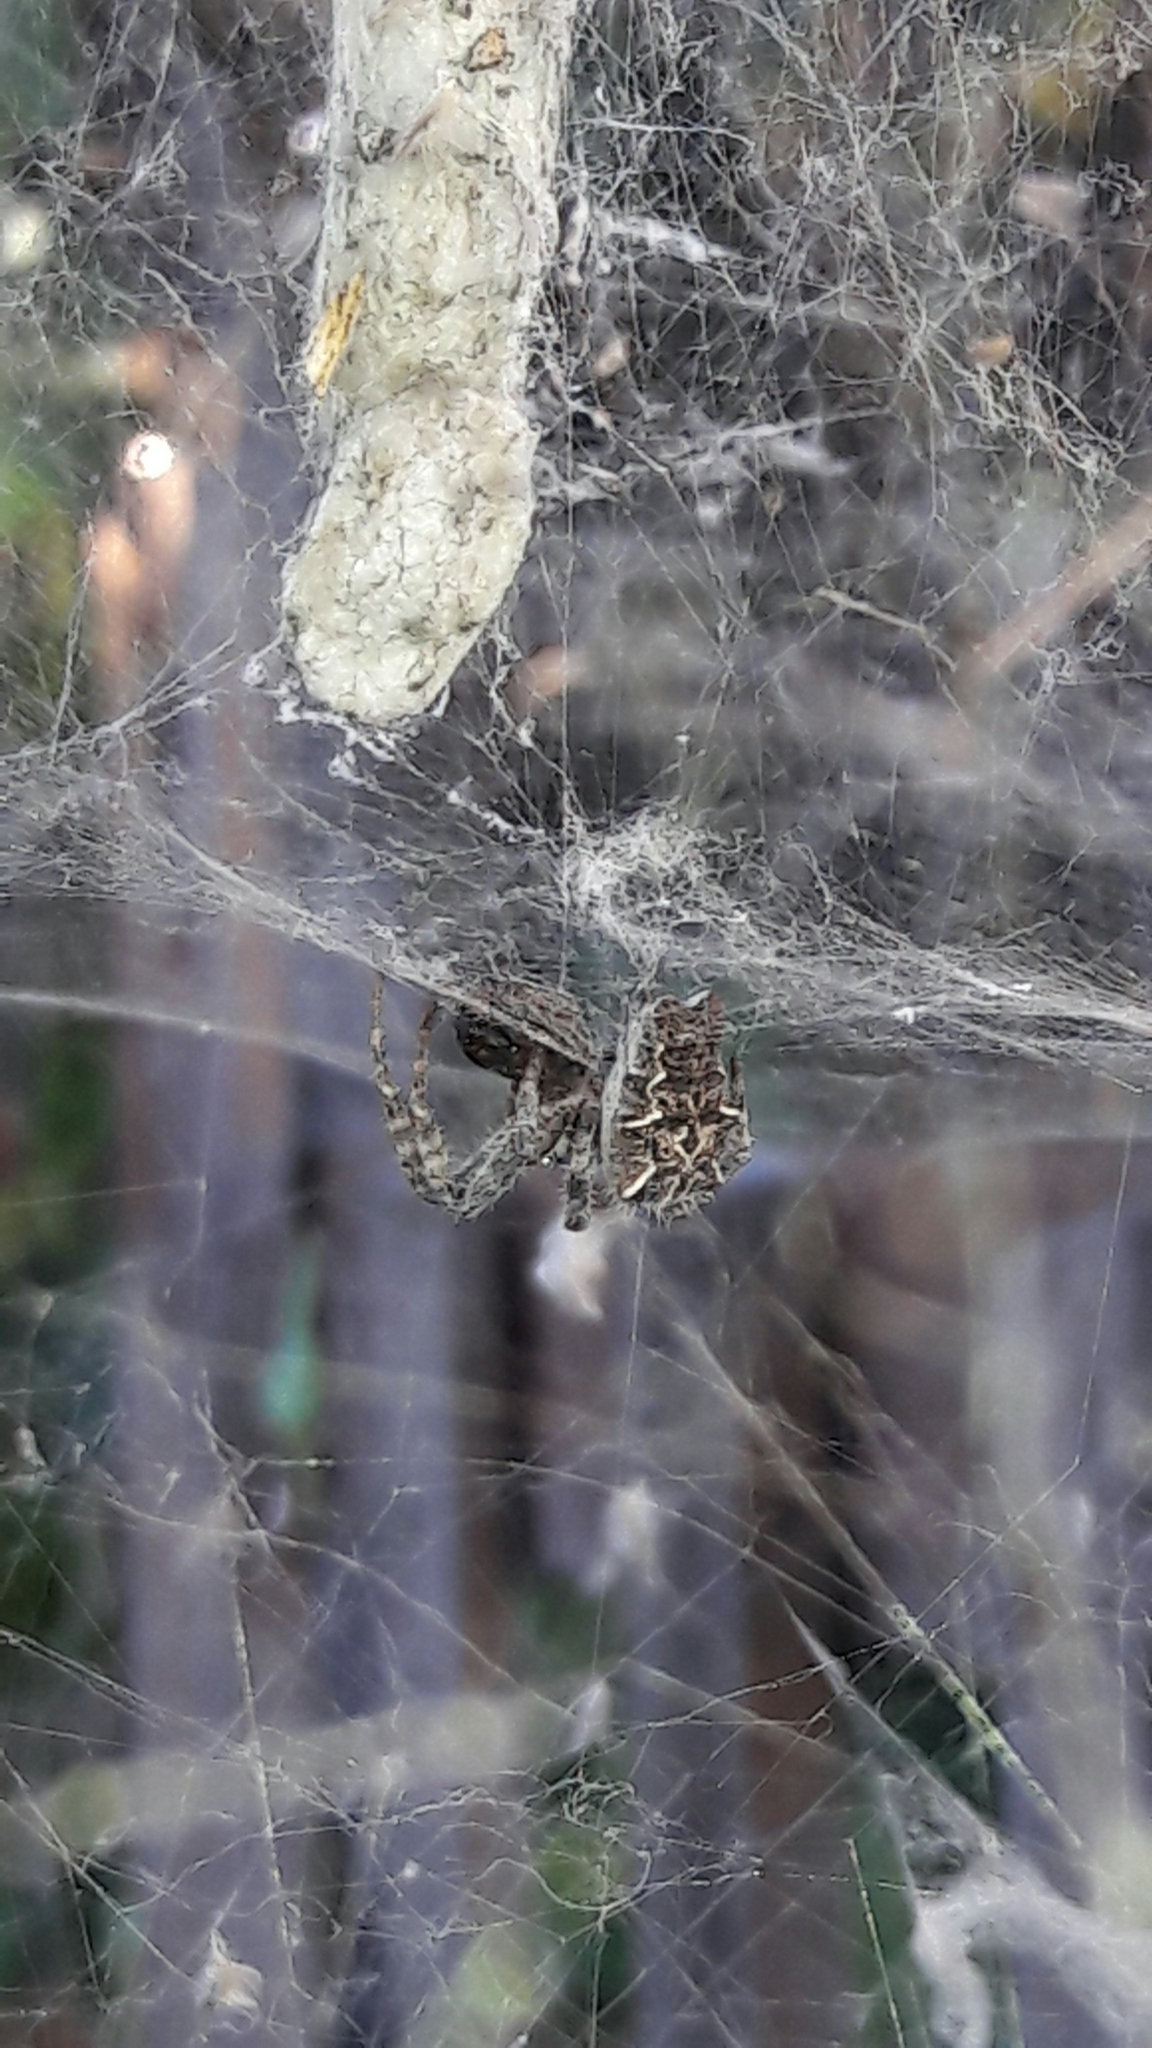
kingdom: Animalia
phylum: Arthropoda
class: Arachnida
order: Araneae
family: Araneidae
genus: Cyrtophora
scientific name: Cyrtophora citricola
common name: Orb weavers
